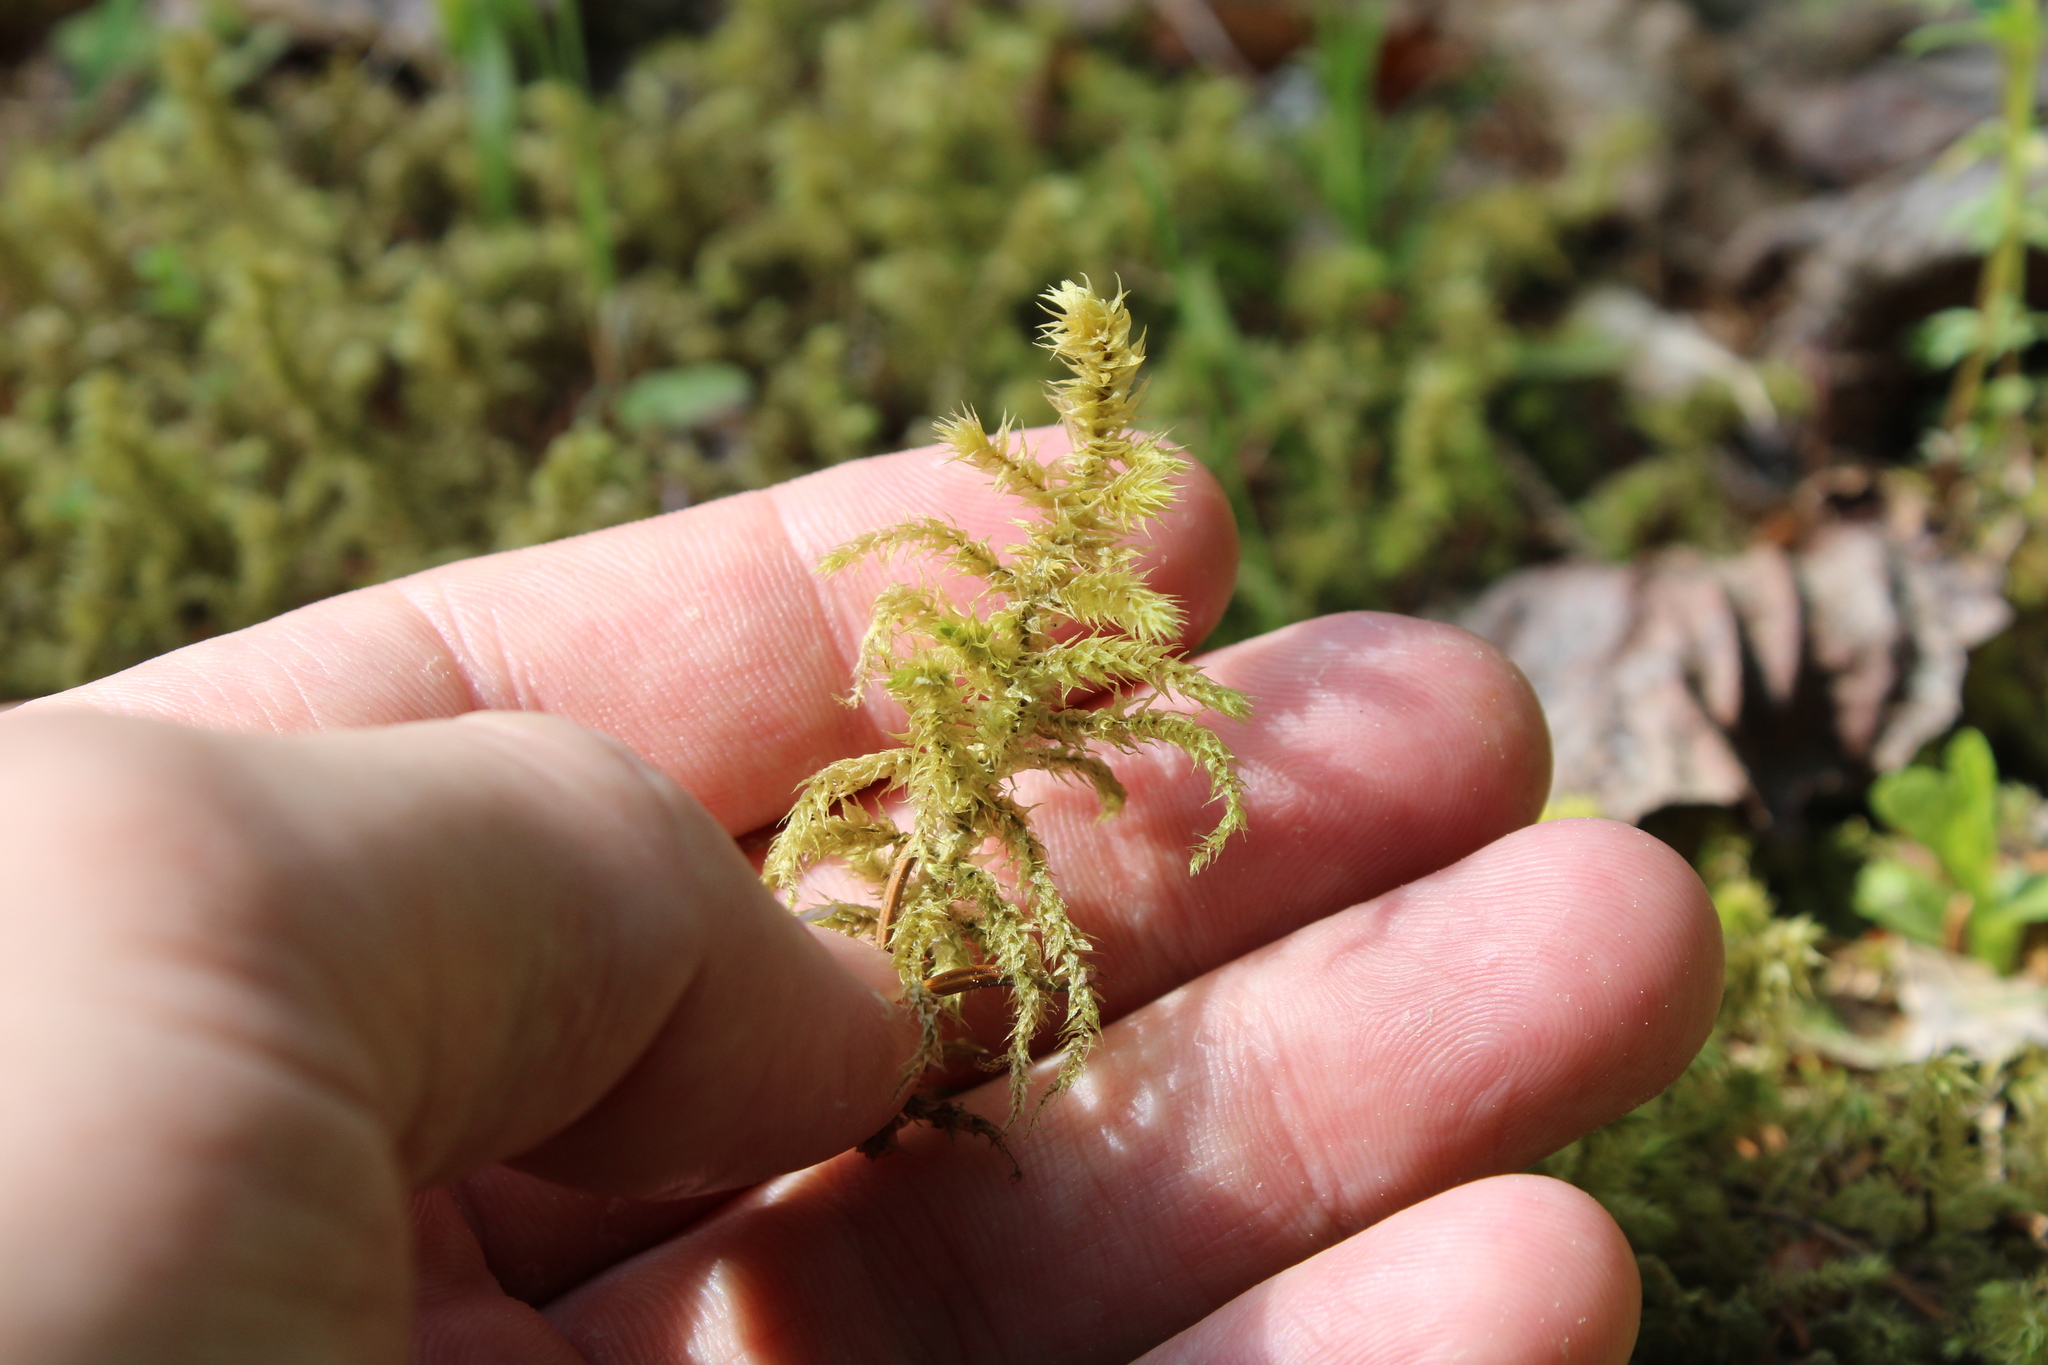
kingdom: Plantae
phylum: Bryophyta
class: Bryopsida
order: Hypnales
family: Hylocomiaceae
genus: Hylocomiadelphus
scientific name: Hylocomiadelphus triquetrus
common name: Rough goose neck moss
